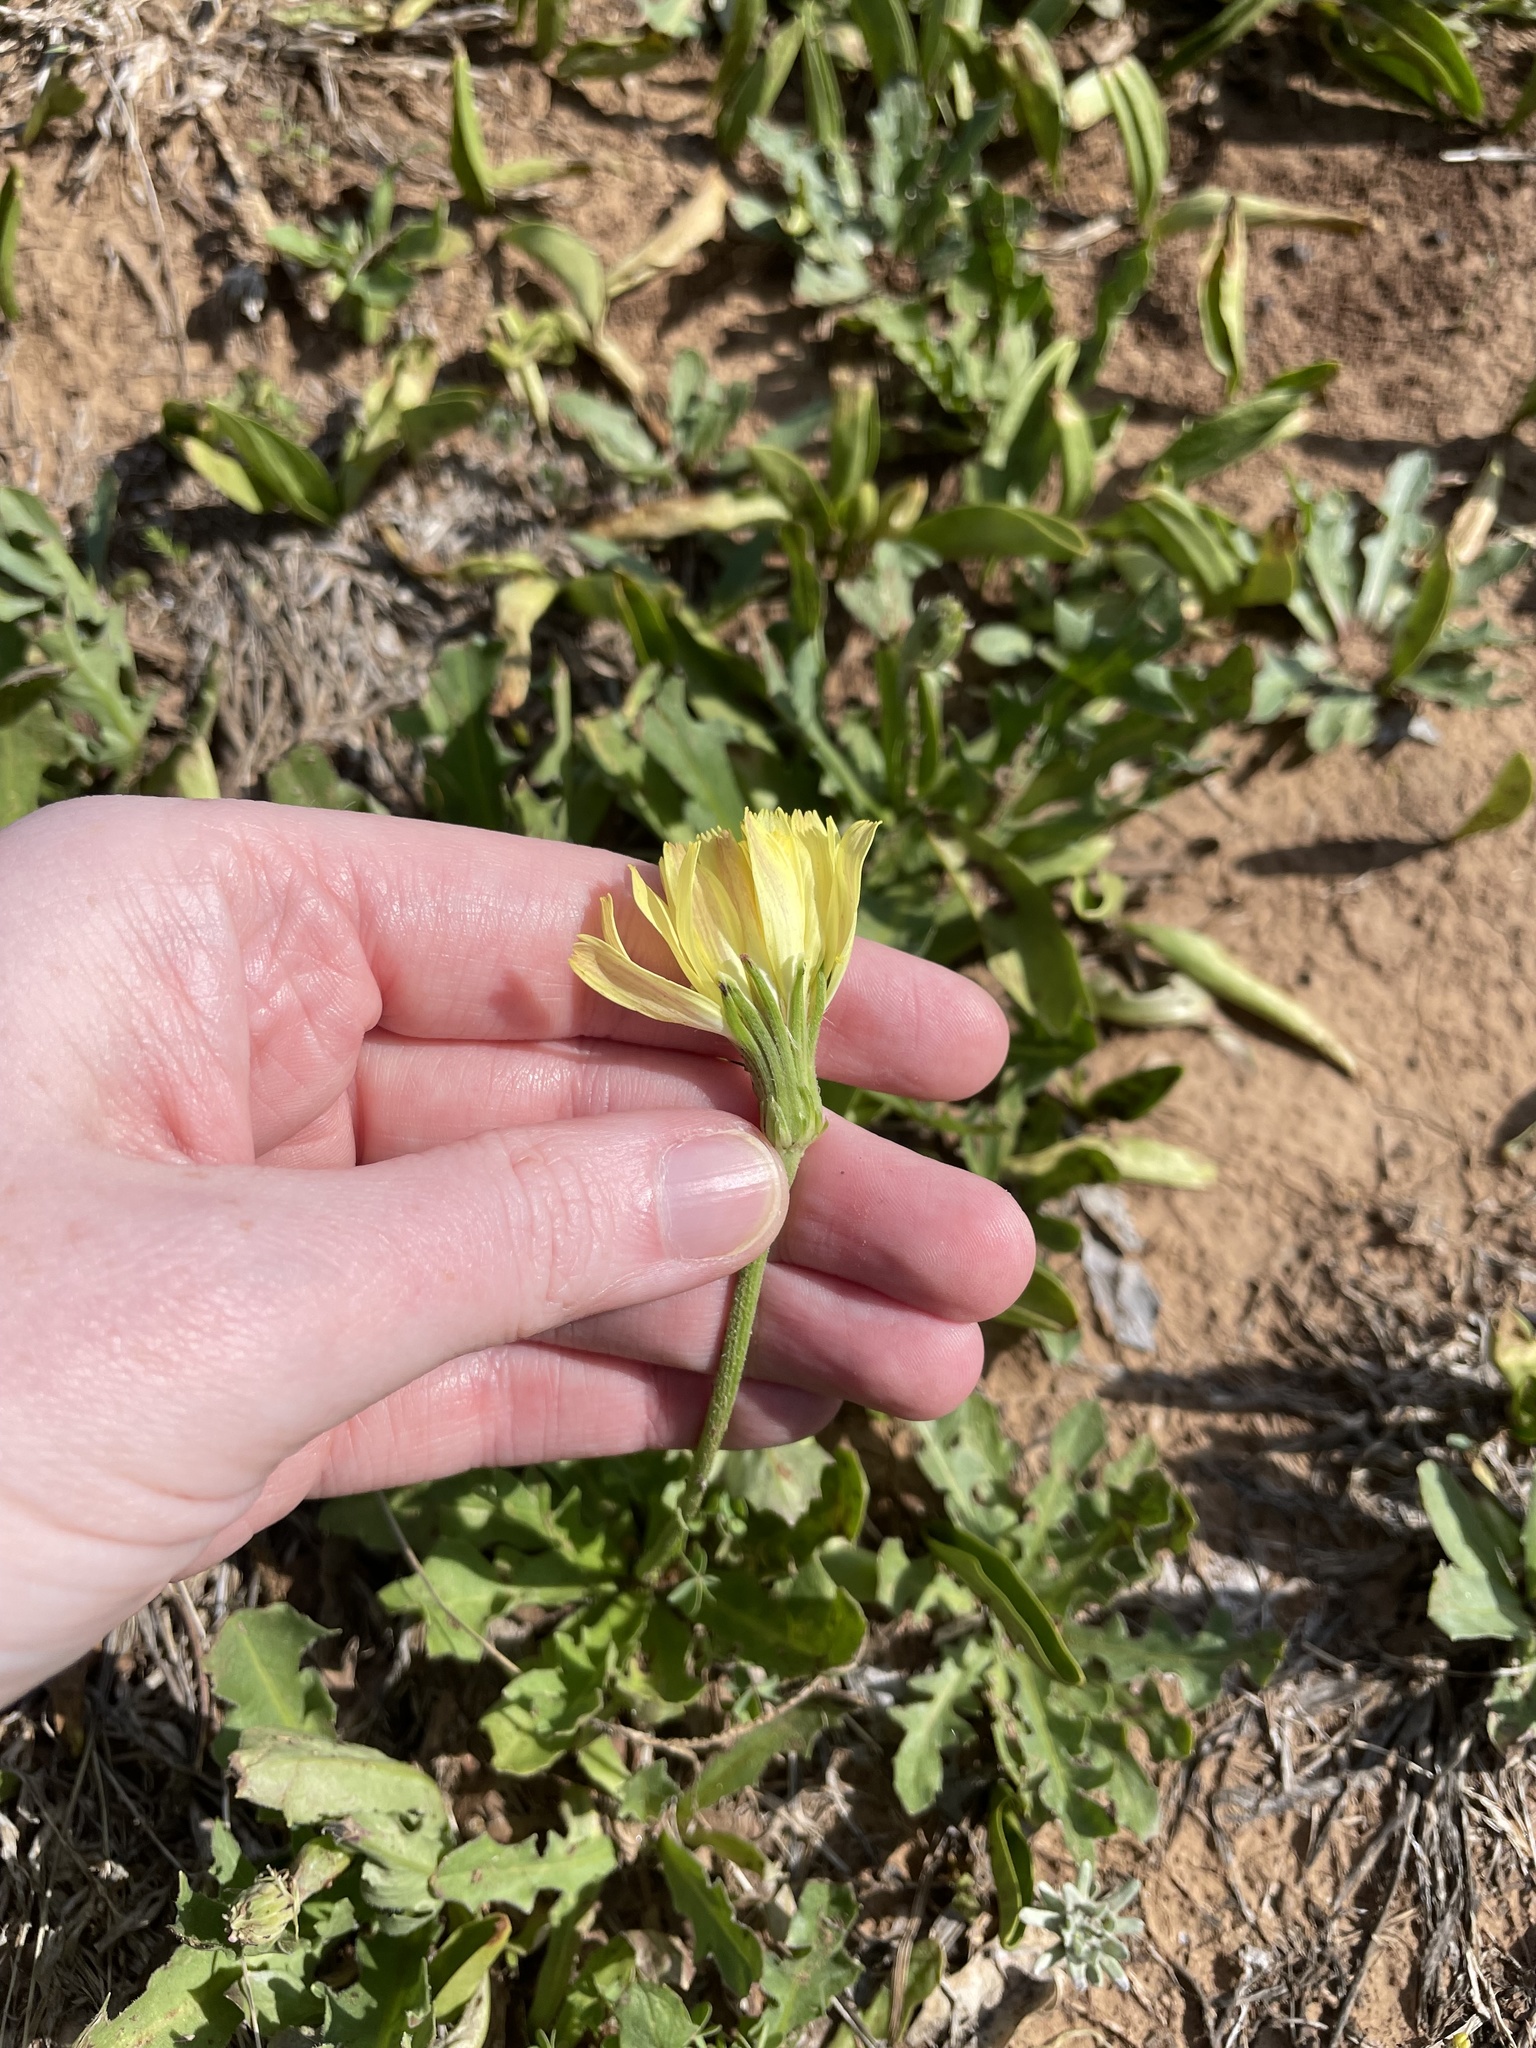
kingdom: Plantae
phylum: Tracheophyta
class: Magnoliopsida
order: Asterales
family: Asteraceae
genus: Pyrrhopappus
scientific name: Pyrrhopappus grandiflorus
